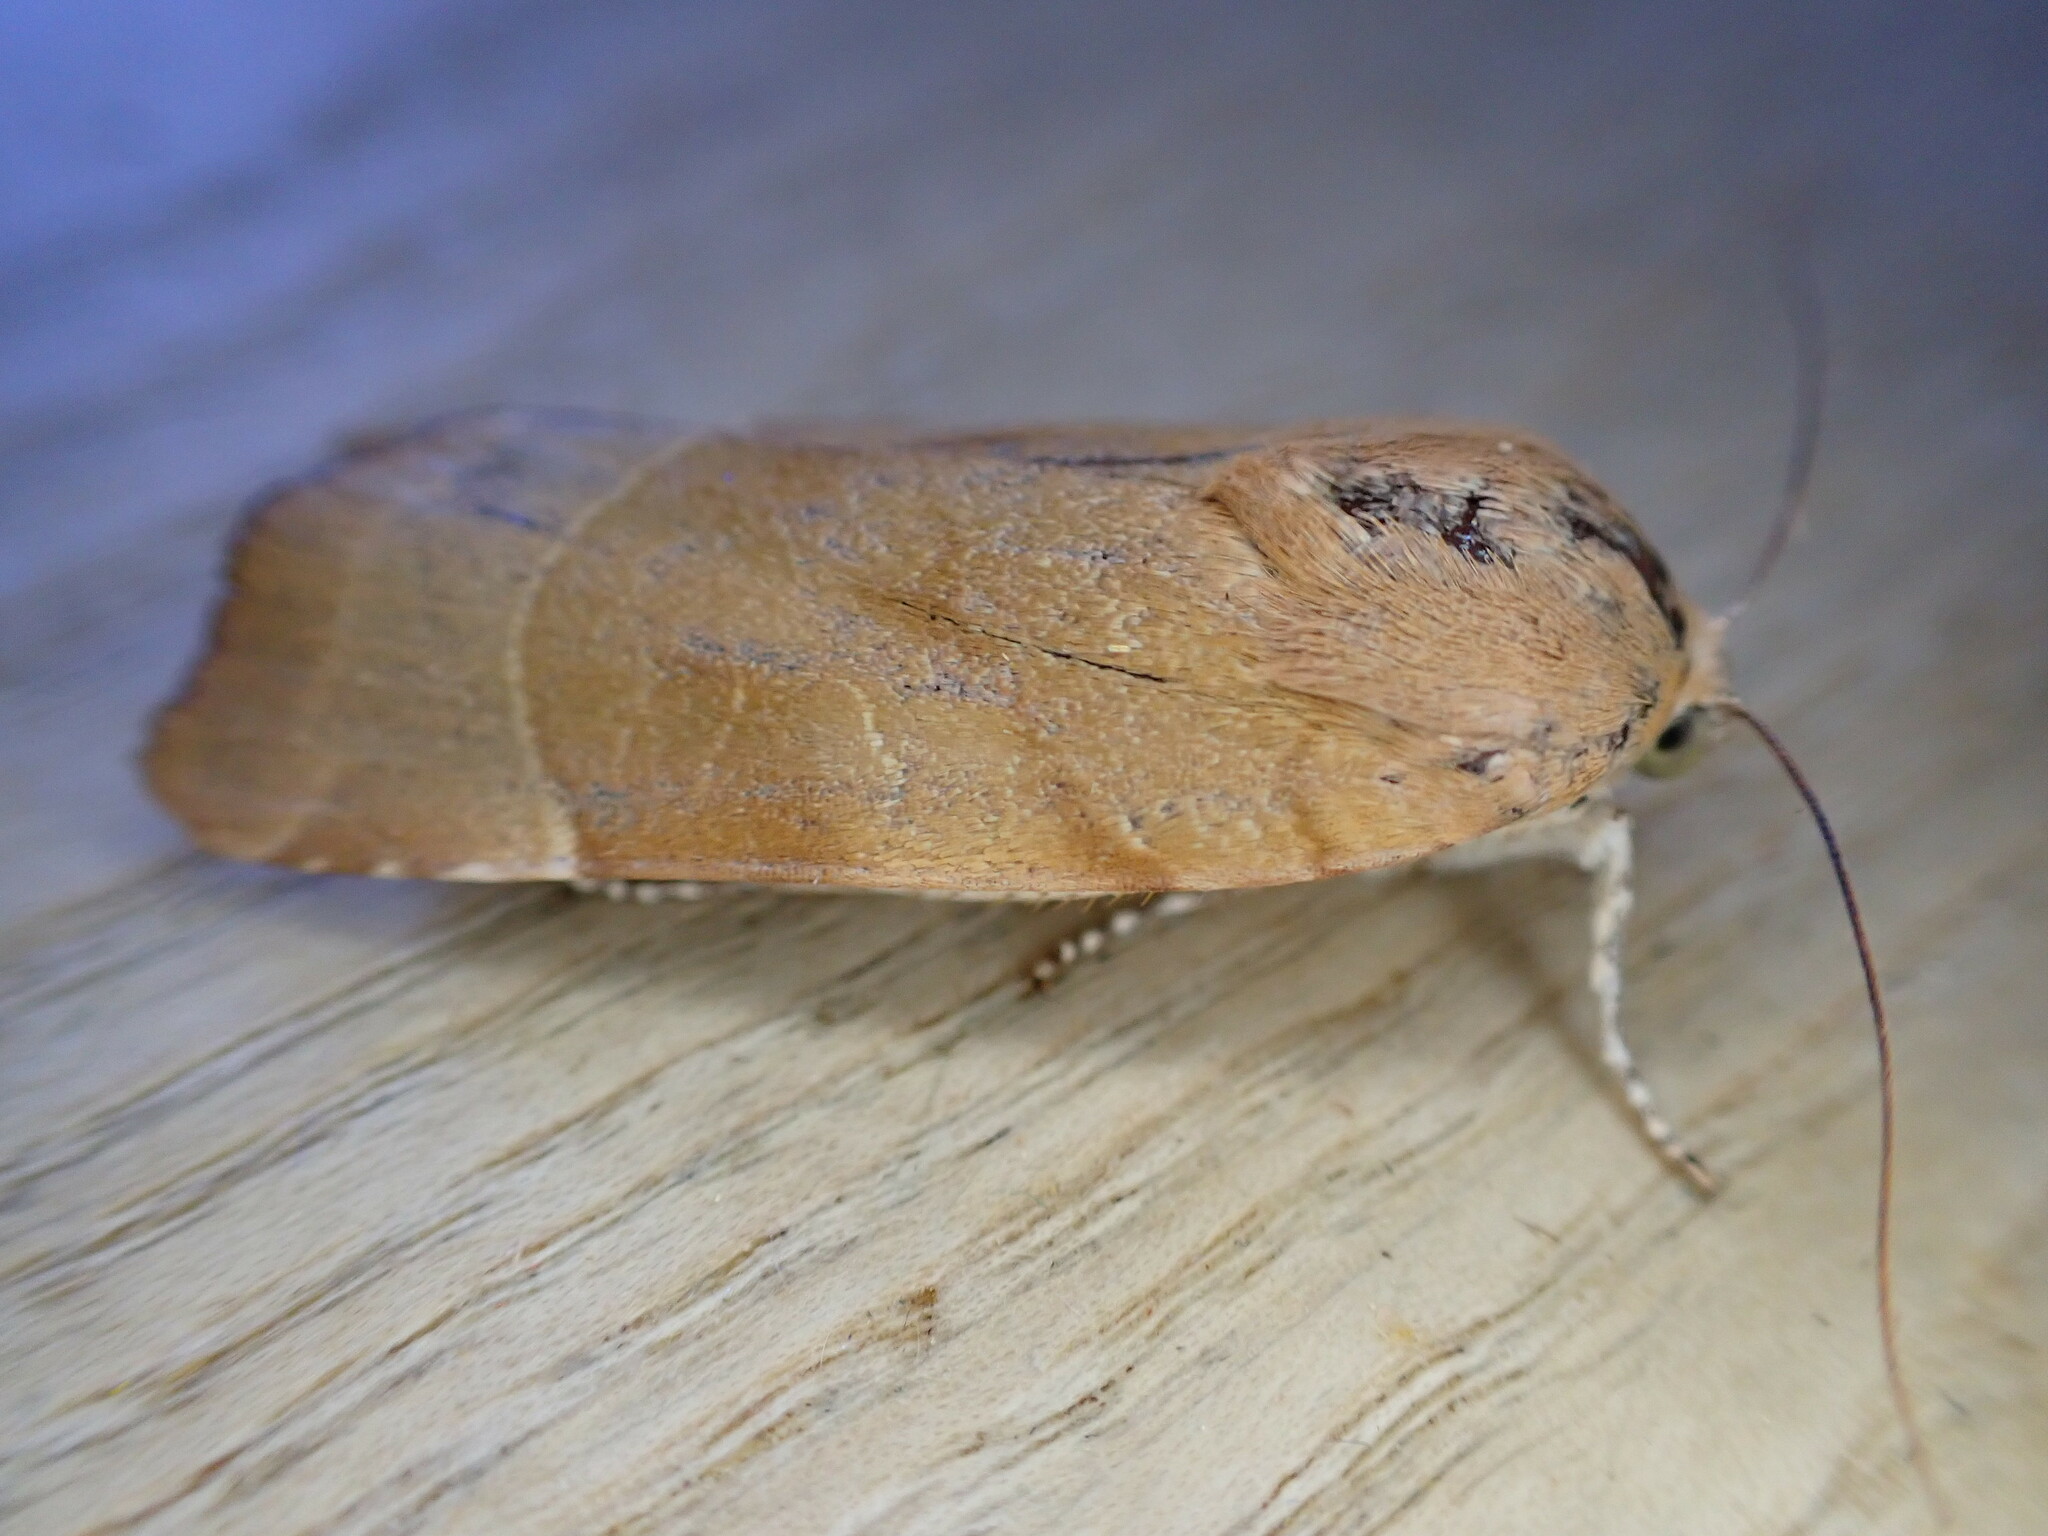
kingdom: Animalia
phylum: Arthropoda
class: Insecta
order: Lepidoptera
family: Noctuidae
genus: Noctua
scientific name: Noctua fimbriata
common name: Broad-bordered yellow underwing
